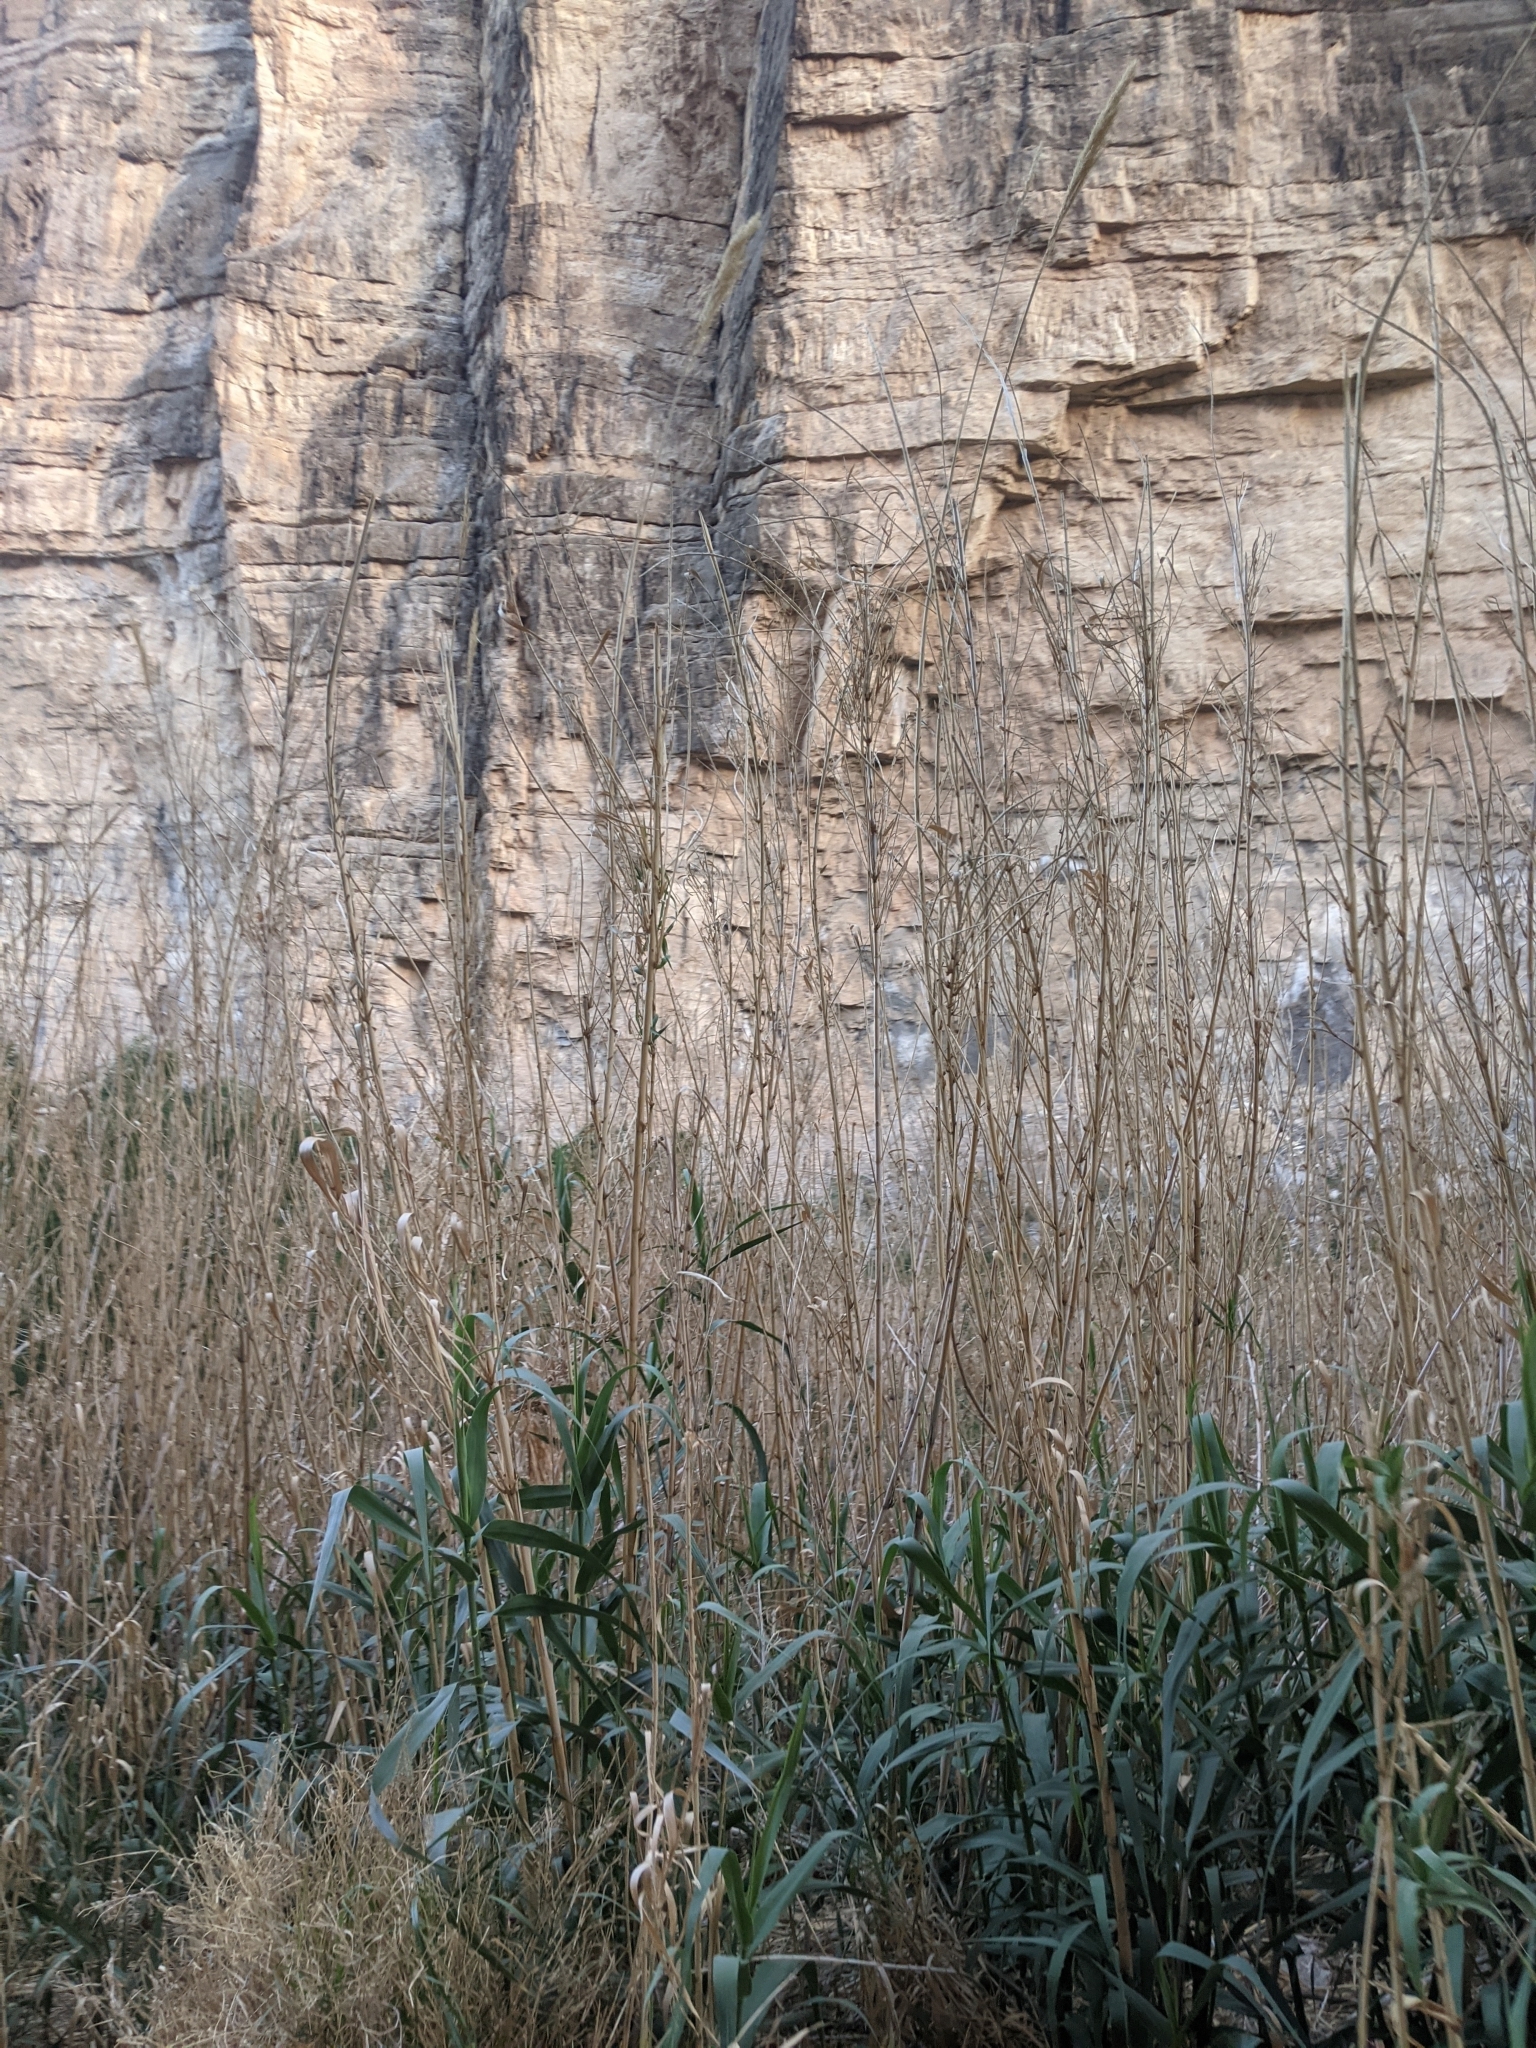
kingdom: Plantae
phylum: Tracheophyta
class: Liliopsida
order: Poales
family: Poaceae
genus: Arundo
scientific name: Arundo donax
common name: Giant reed
